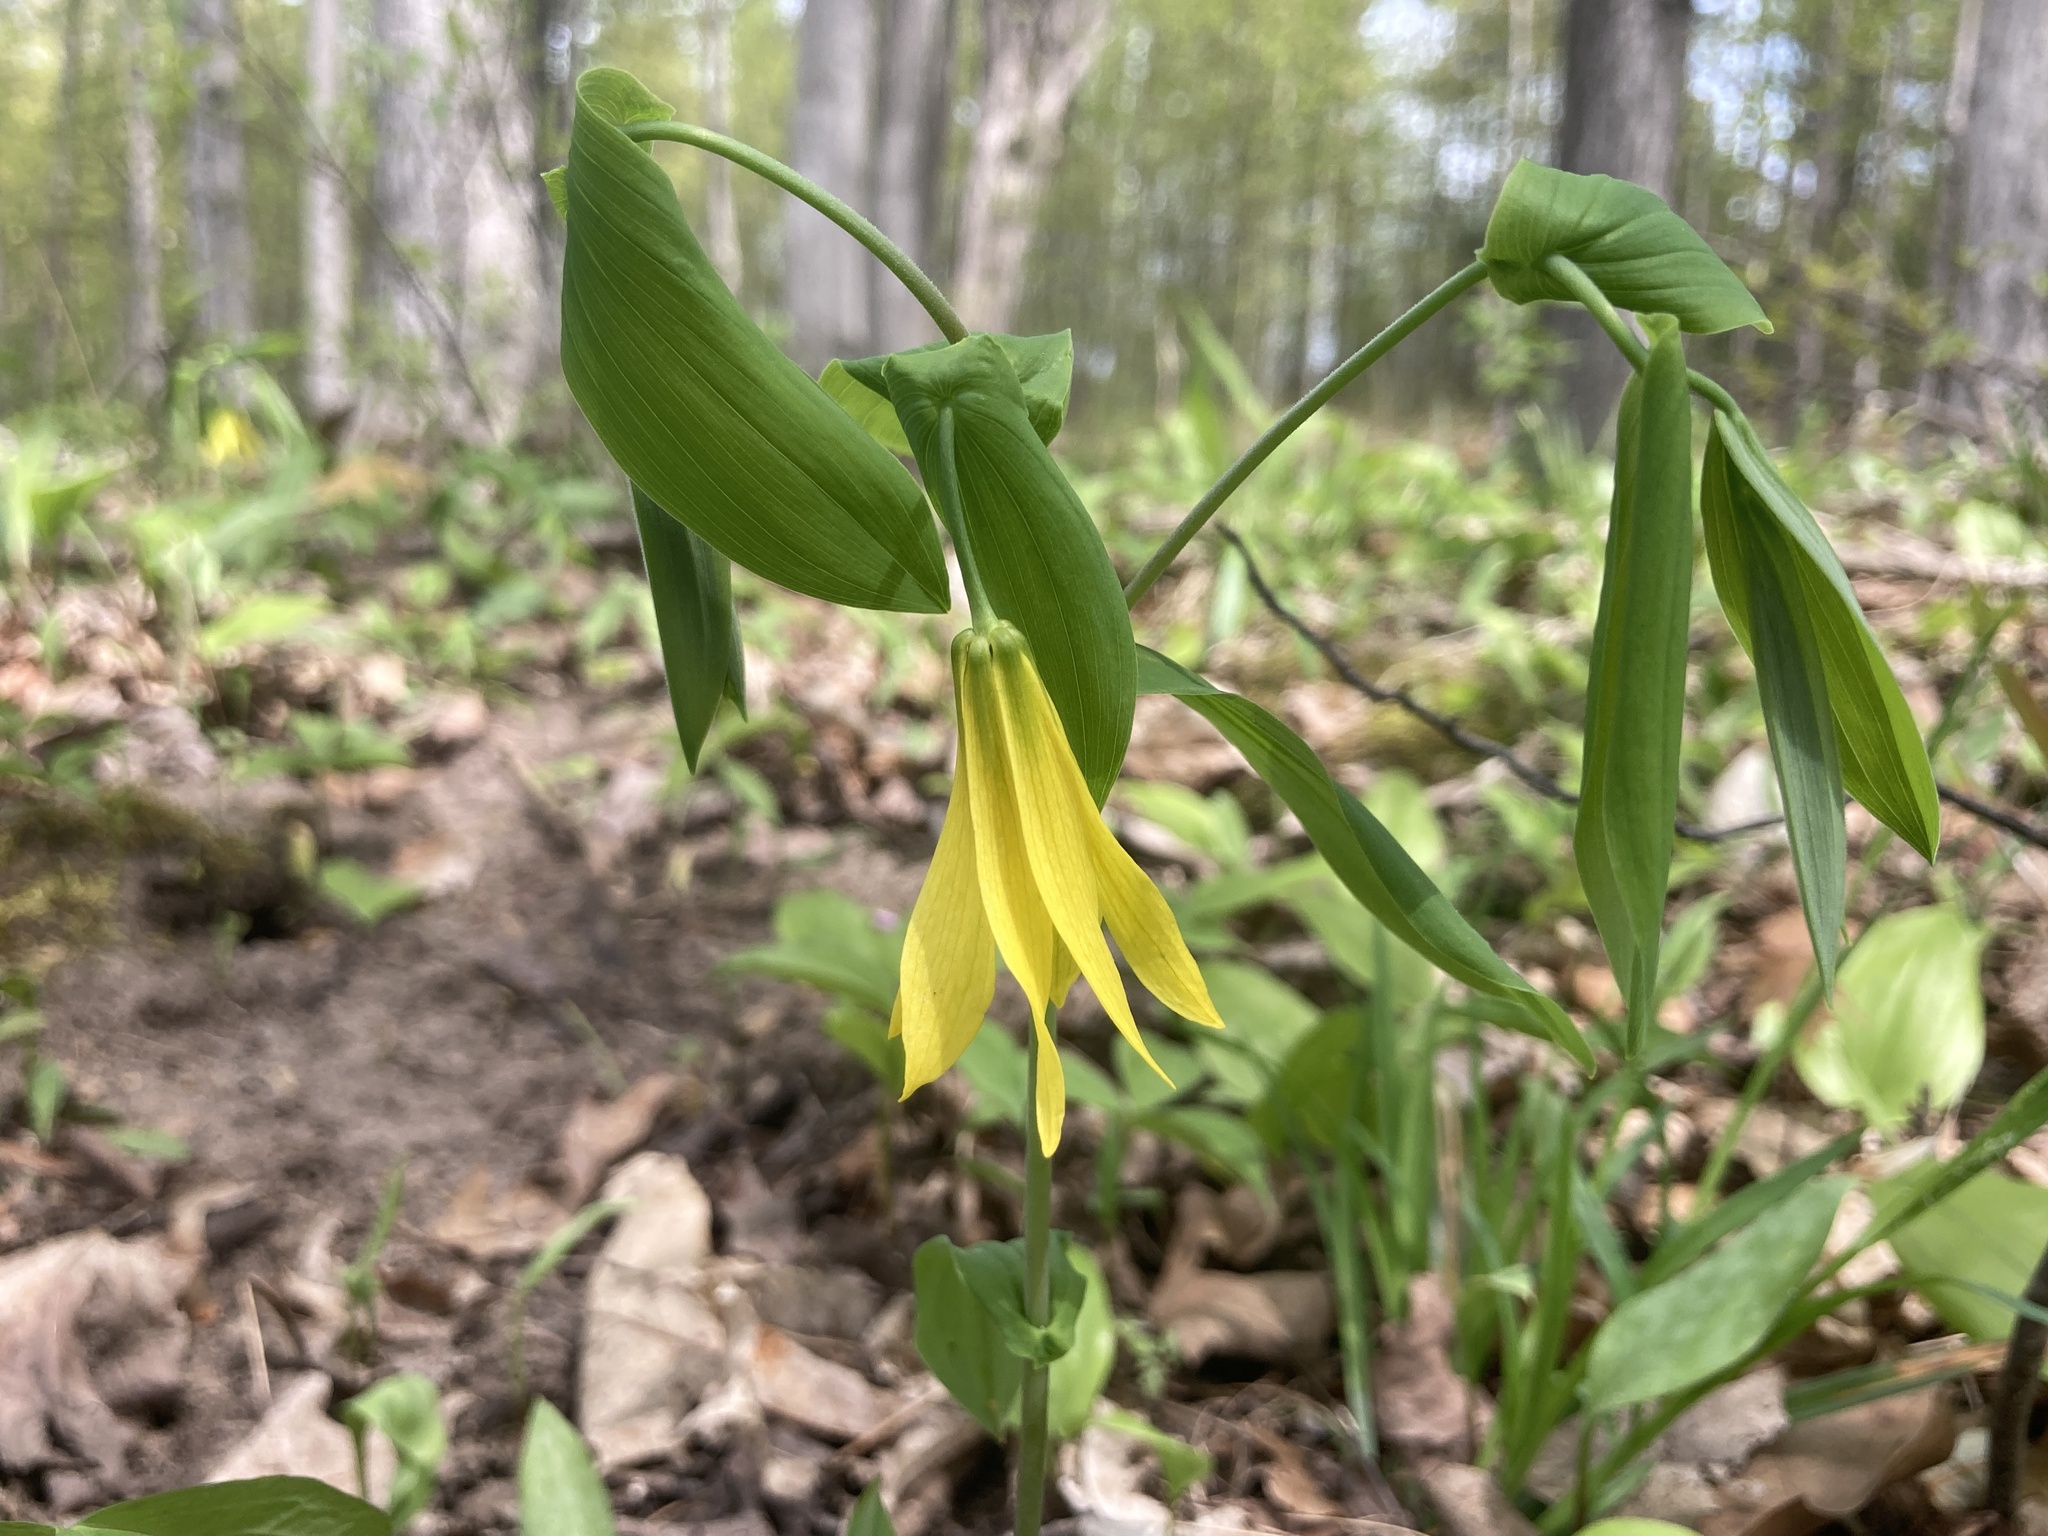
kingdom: Plantae
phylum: Tracheophyta
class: Liliopsida
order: Liliales
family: Colchicaceae
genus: Uvularia
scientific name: Uvularia grandiflora
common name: Bellwort
